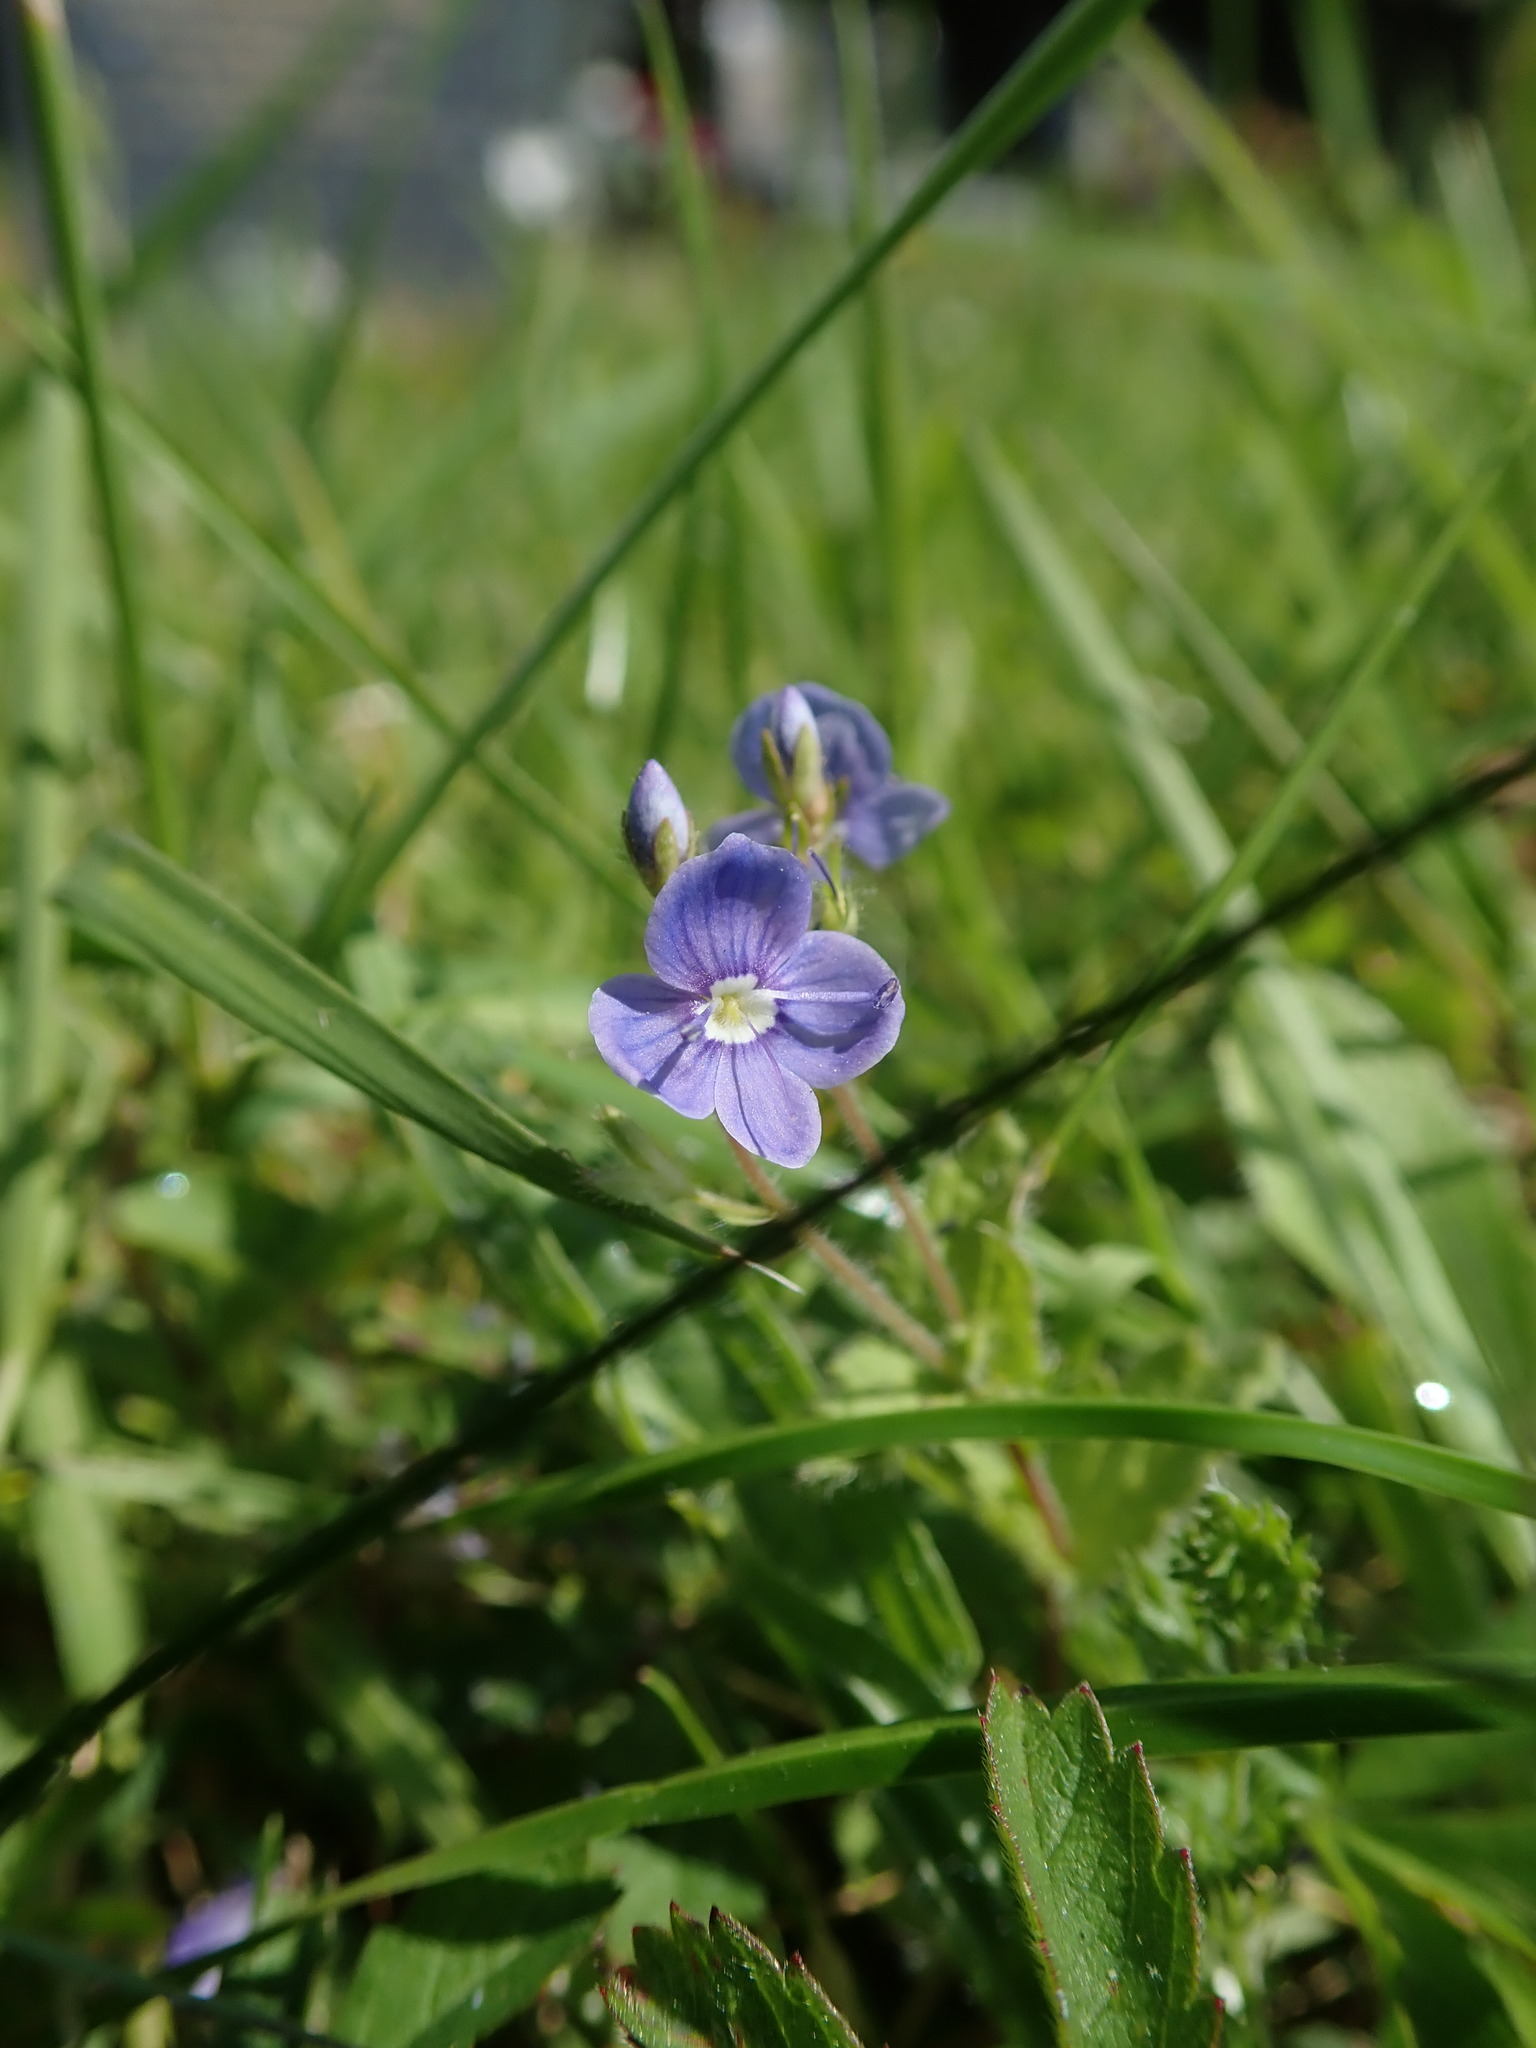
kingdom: Plantae
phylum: Tracheophyta
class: Magnoliopsida
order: Lamiales
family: Plantaginaceae
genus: Veronica
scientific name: Veronica chamaedrys
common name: Germander speedwell
